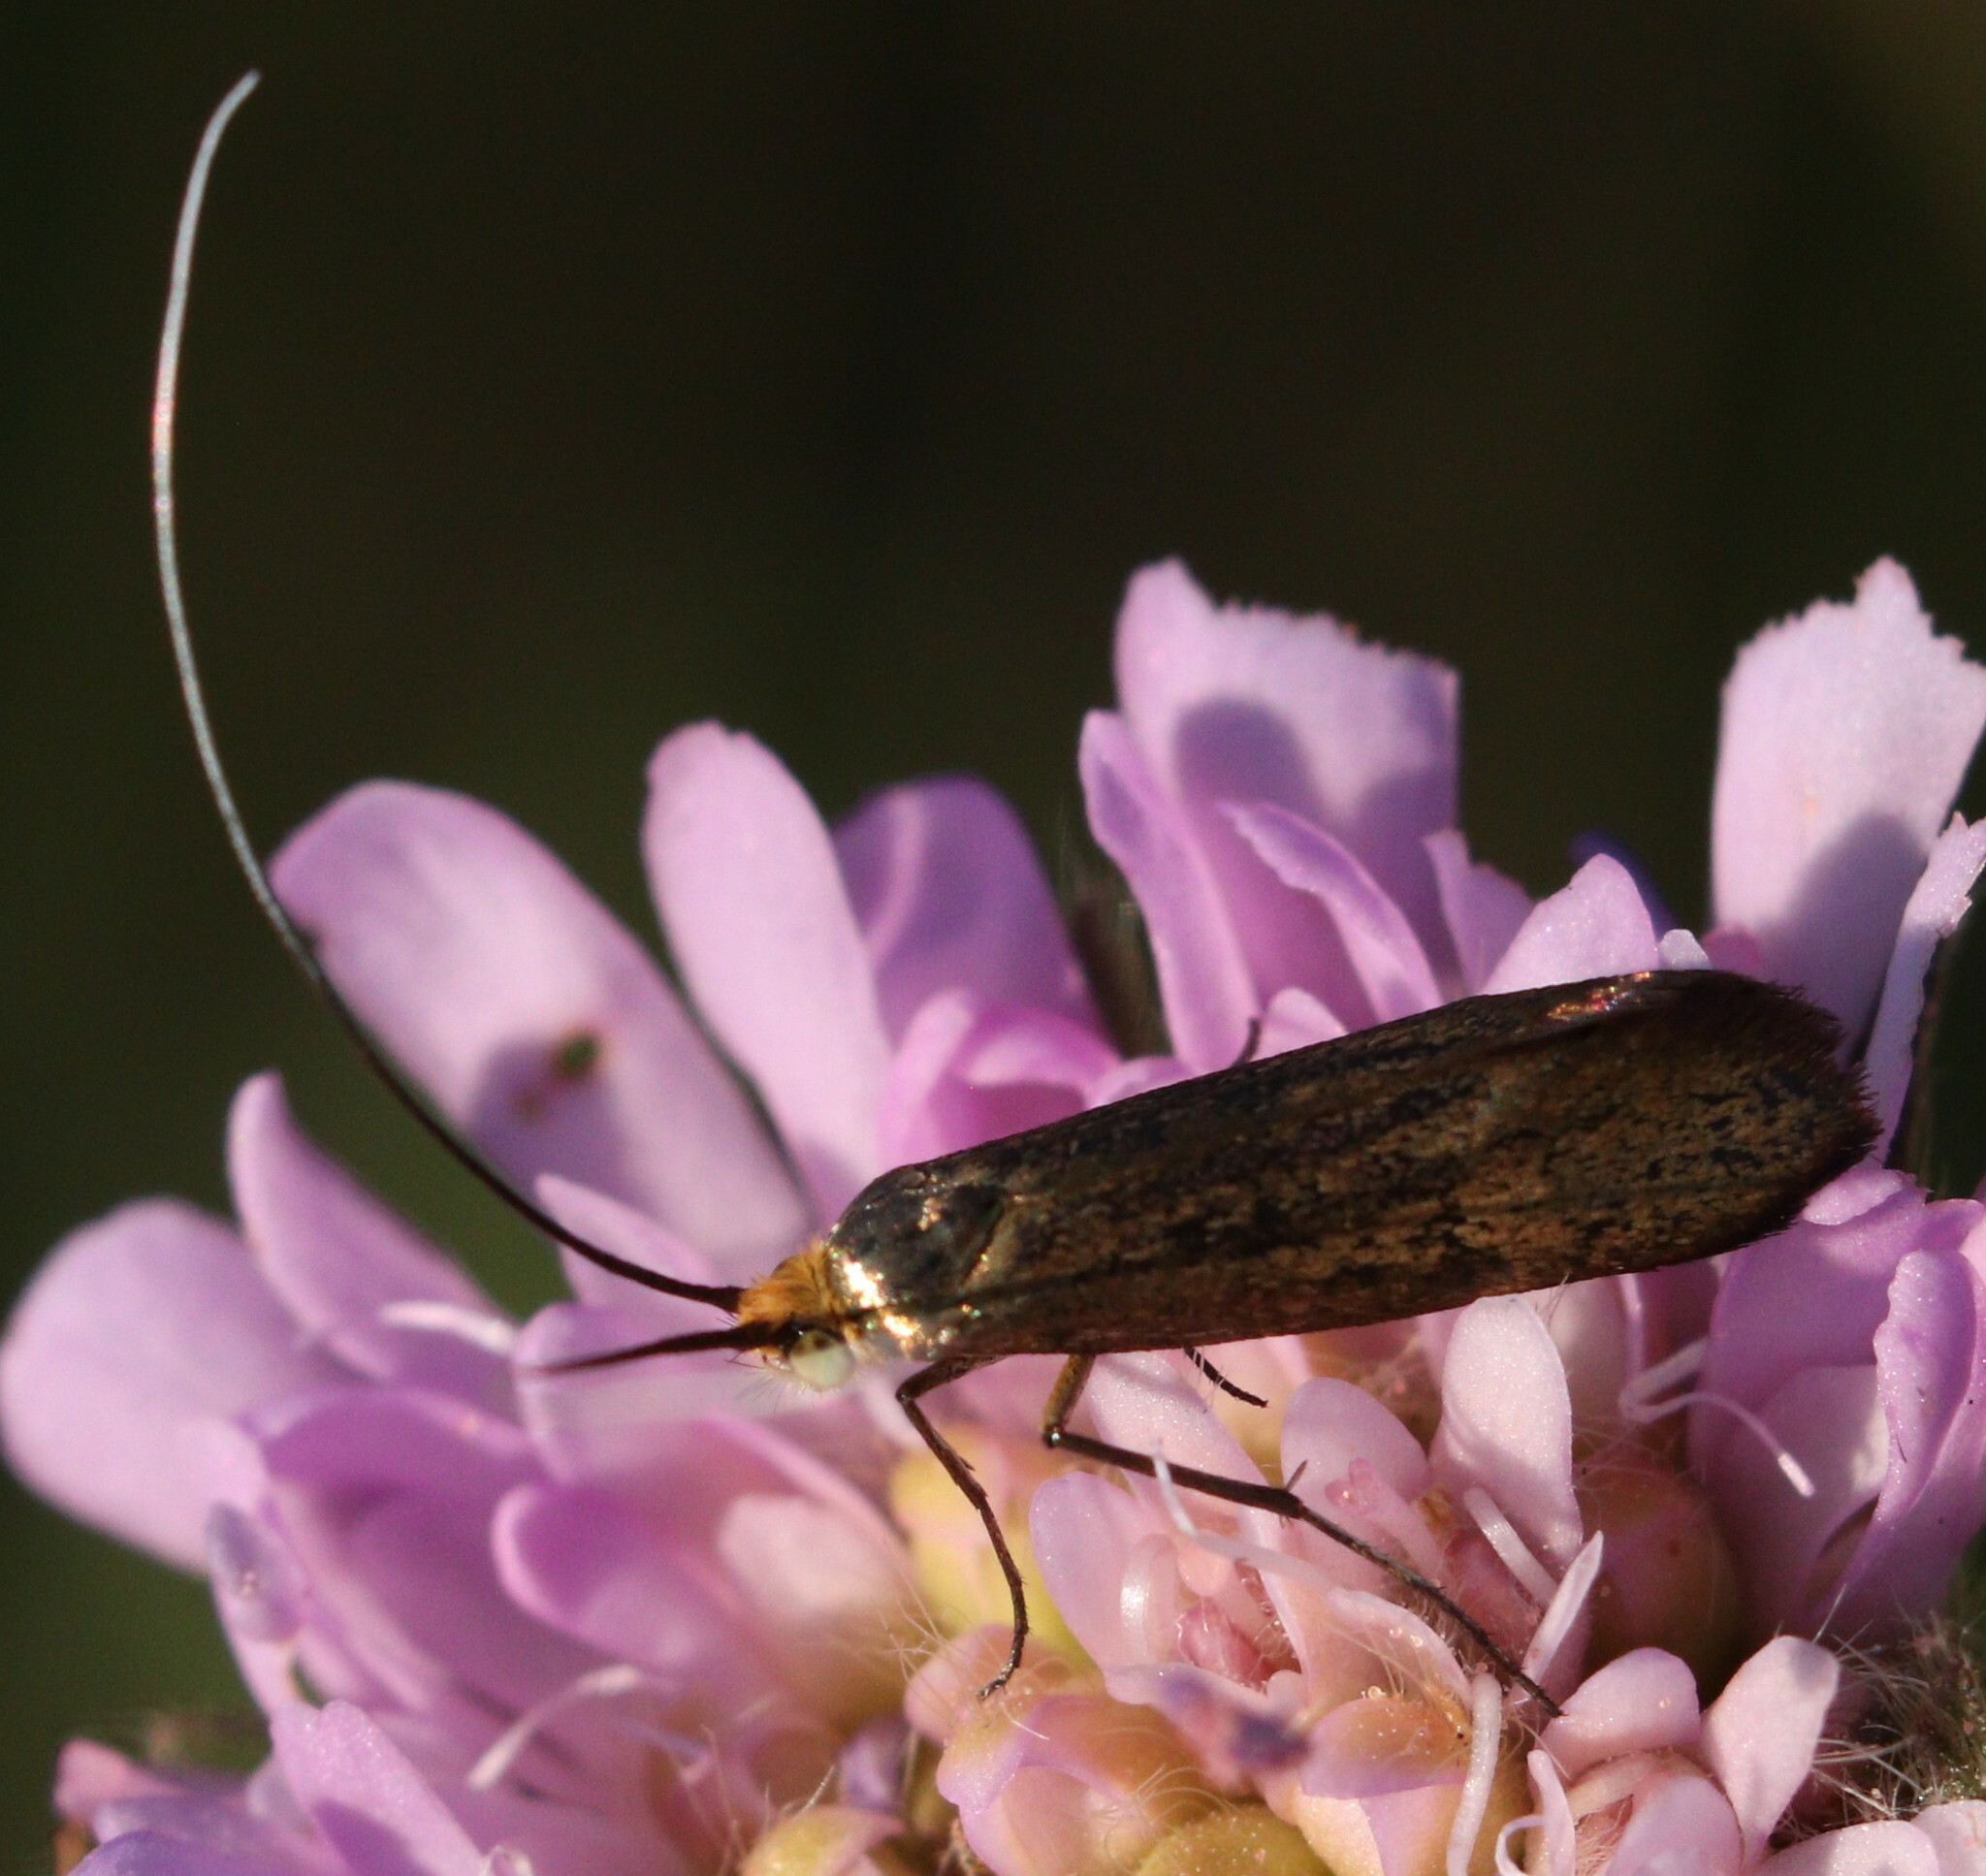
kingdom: Animalia
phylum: Arthropoda
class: Insecta
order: Lepidoptera
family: Adelidae
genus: Nemophora
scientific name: Nemophora metallica
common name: Brassy long-horn
